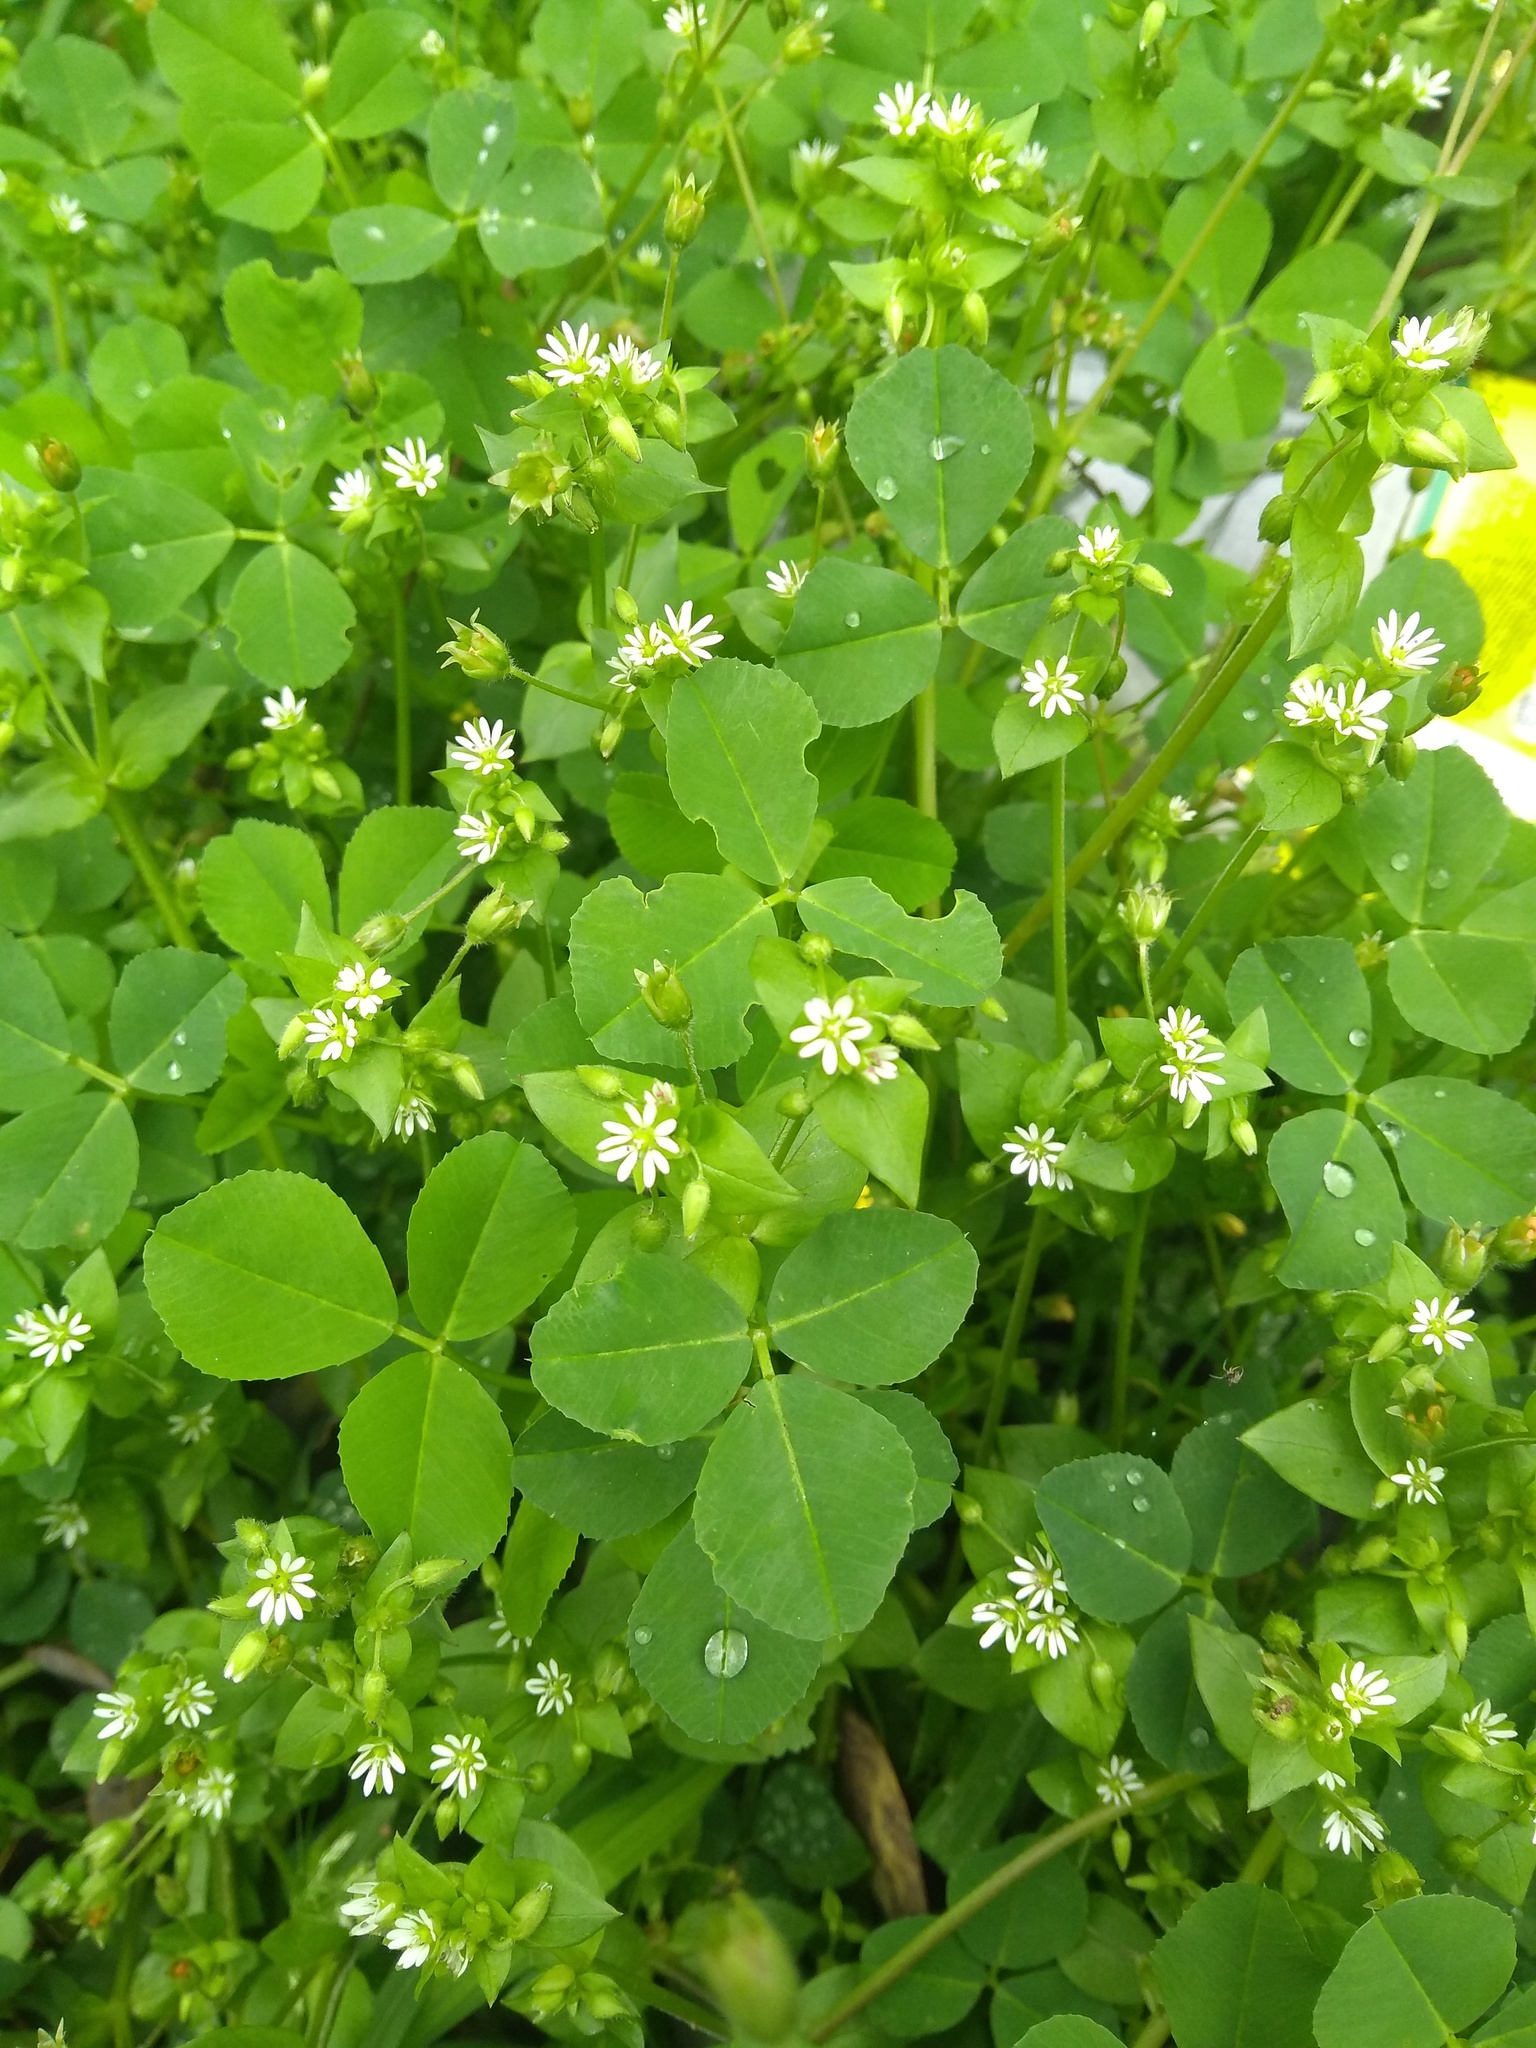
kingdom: Plantae
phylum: Tracheophyta
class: Magnoliopsida
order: Caryophyllales
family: Caryophyllaceae
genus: Stellaria
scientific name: Stellaria media
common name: Common chickweed
